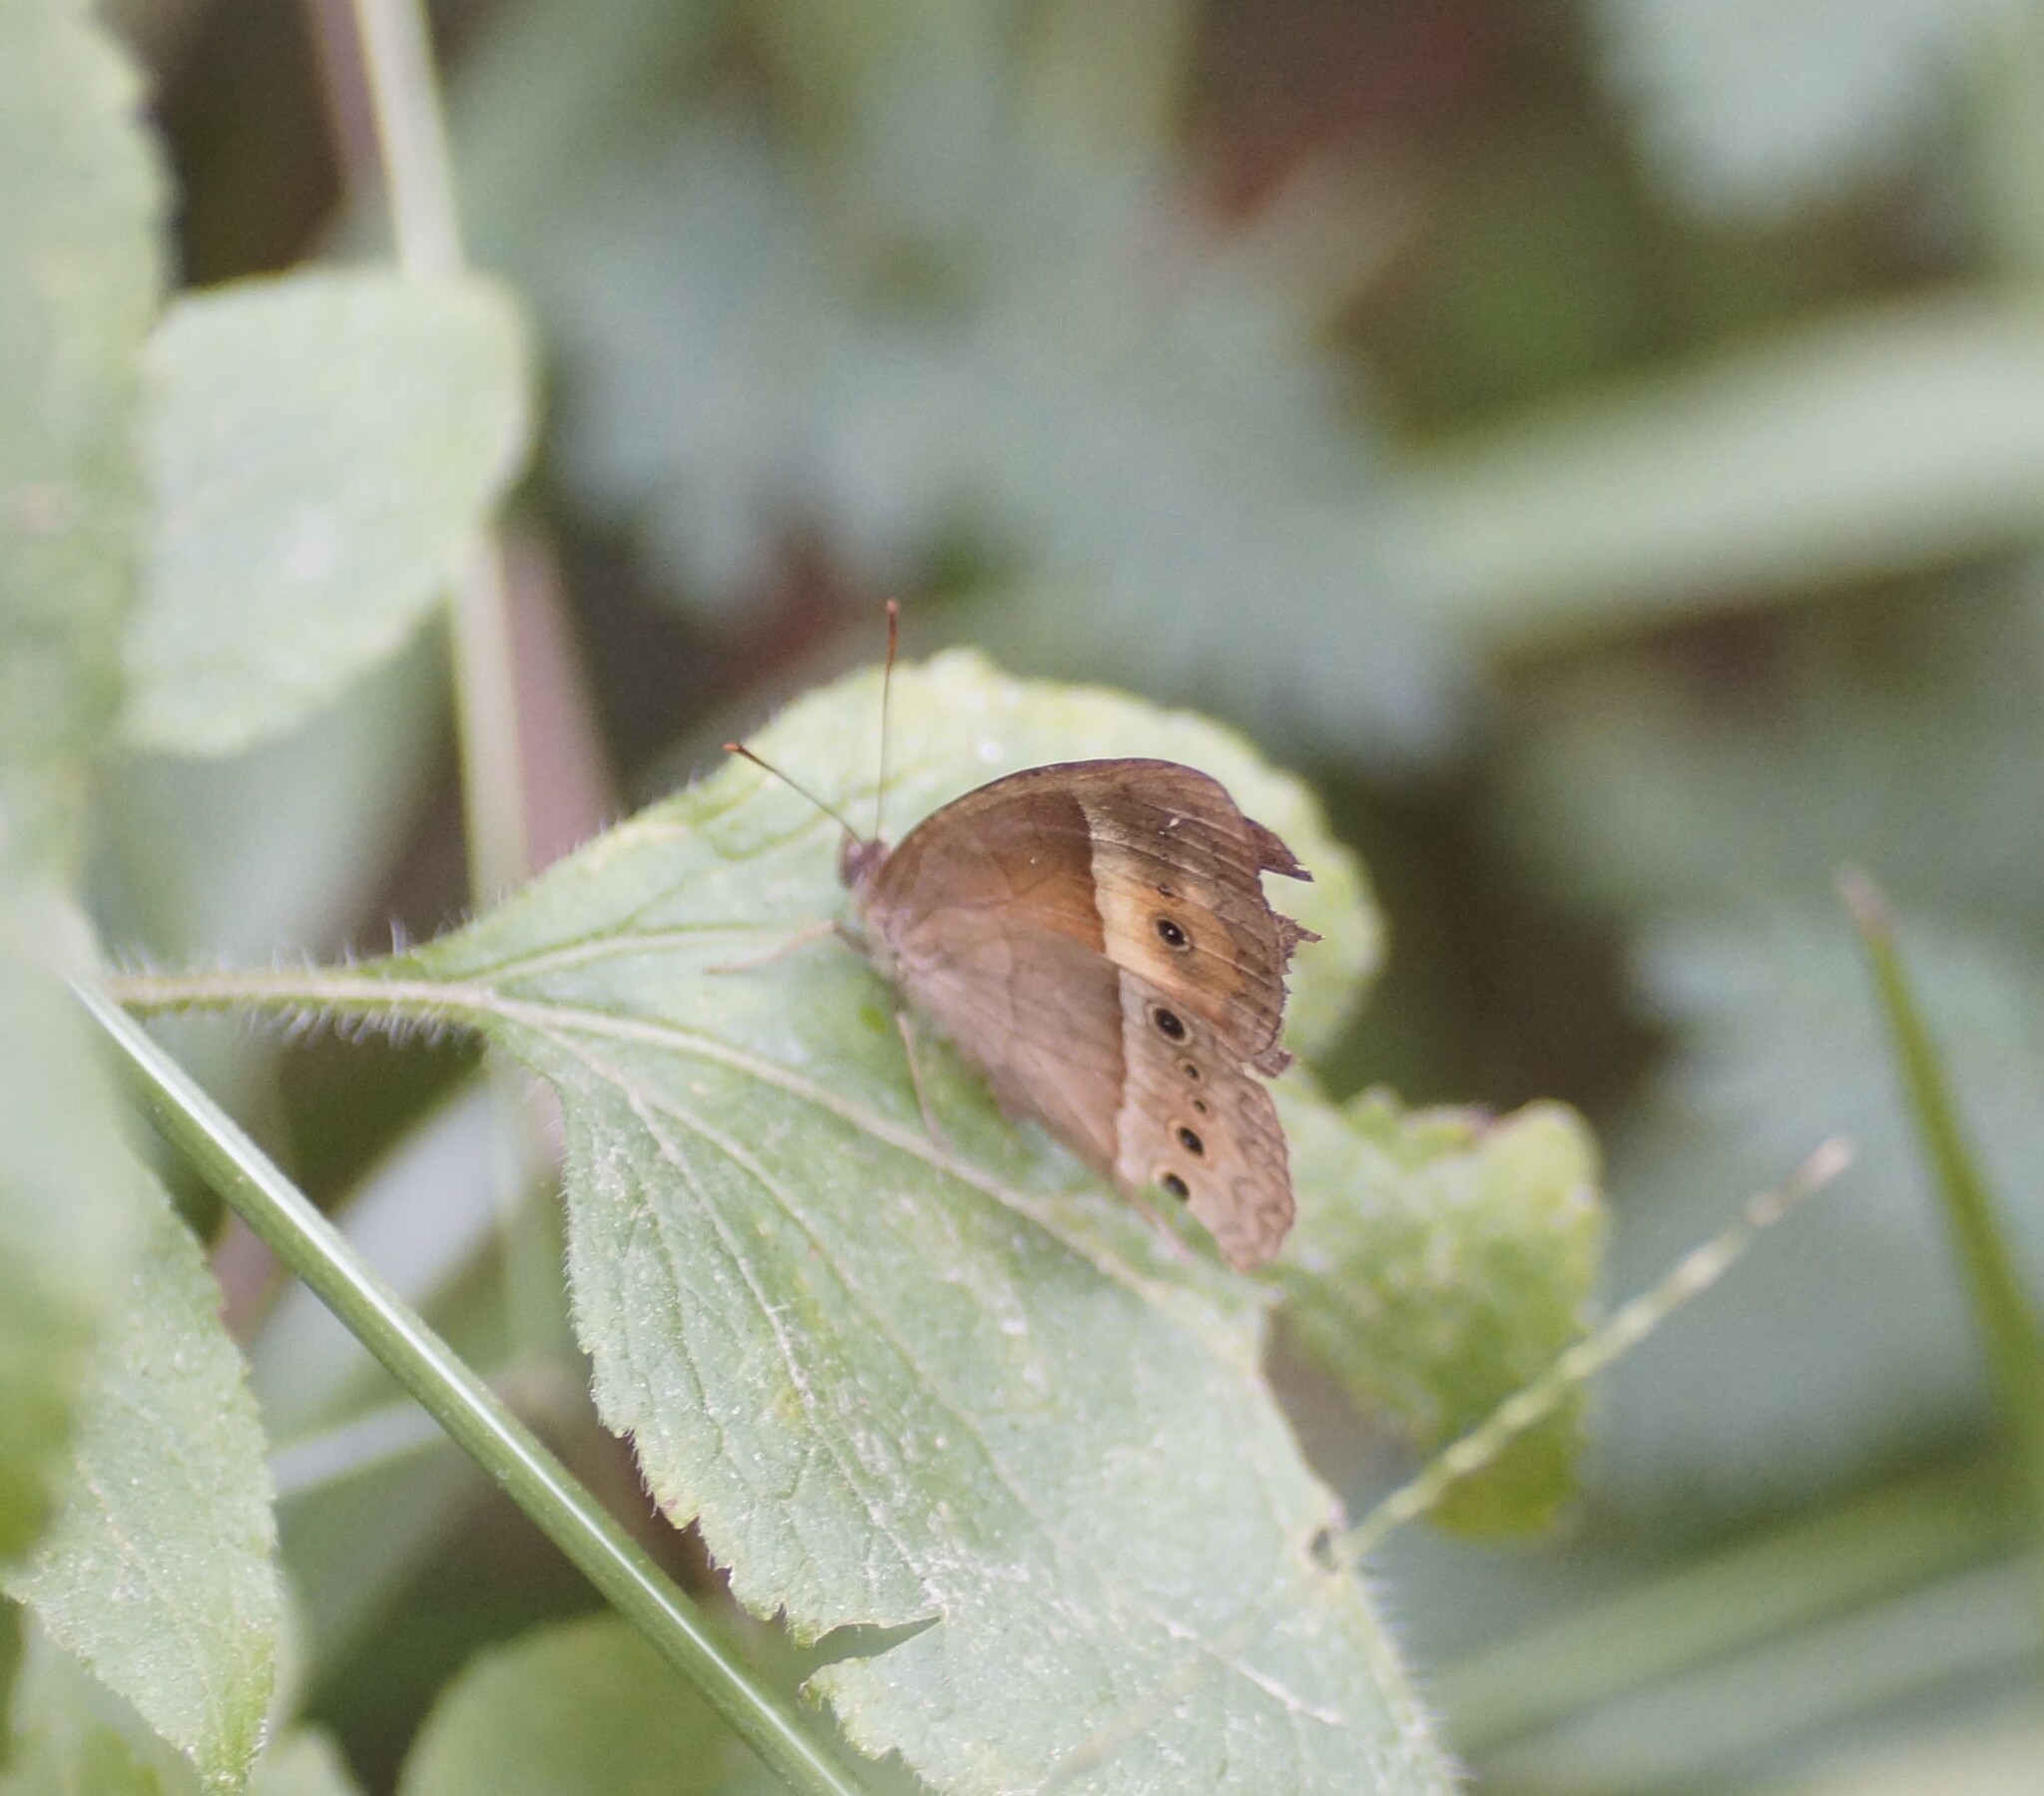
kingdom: Animalia
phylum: Arthropoda
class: Insecta
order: Lepidoptera
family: Nymphalidae
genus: Mycalesis
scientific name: Mycalesis terminus
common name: Orange bushbrown
